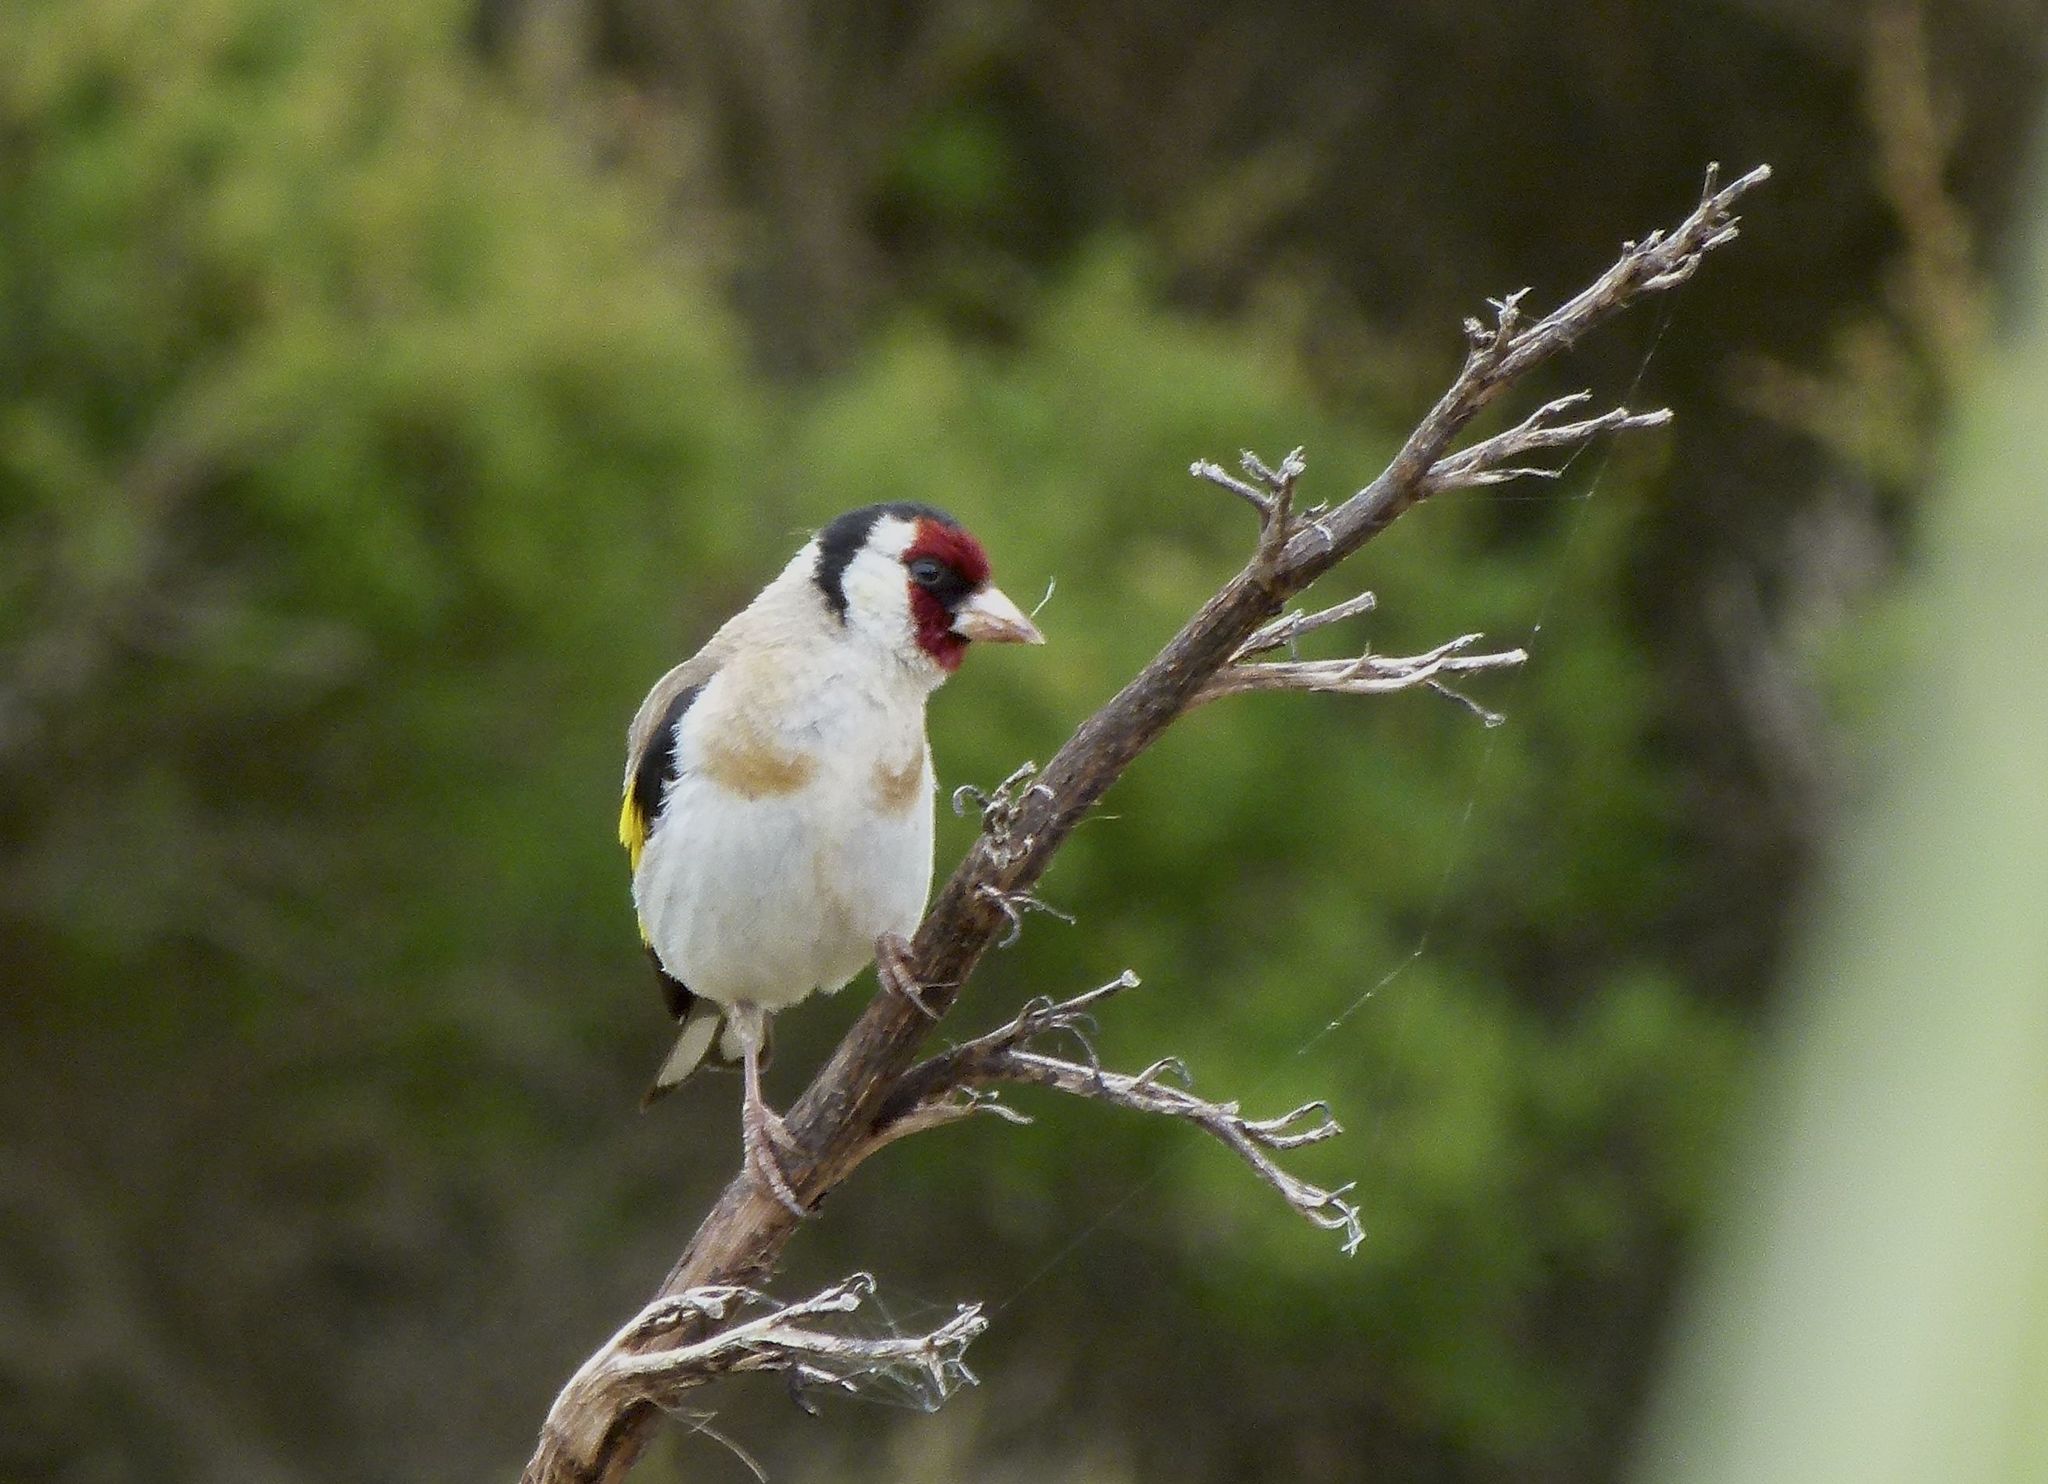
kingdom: Animalia
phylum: Chordata
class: Aves
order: Passeriformes
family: Fringillidae
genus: Carduelis
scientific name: Carduelis carduelis
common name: European goldfinch
